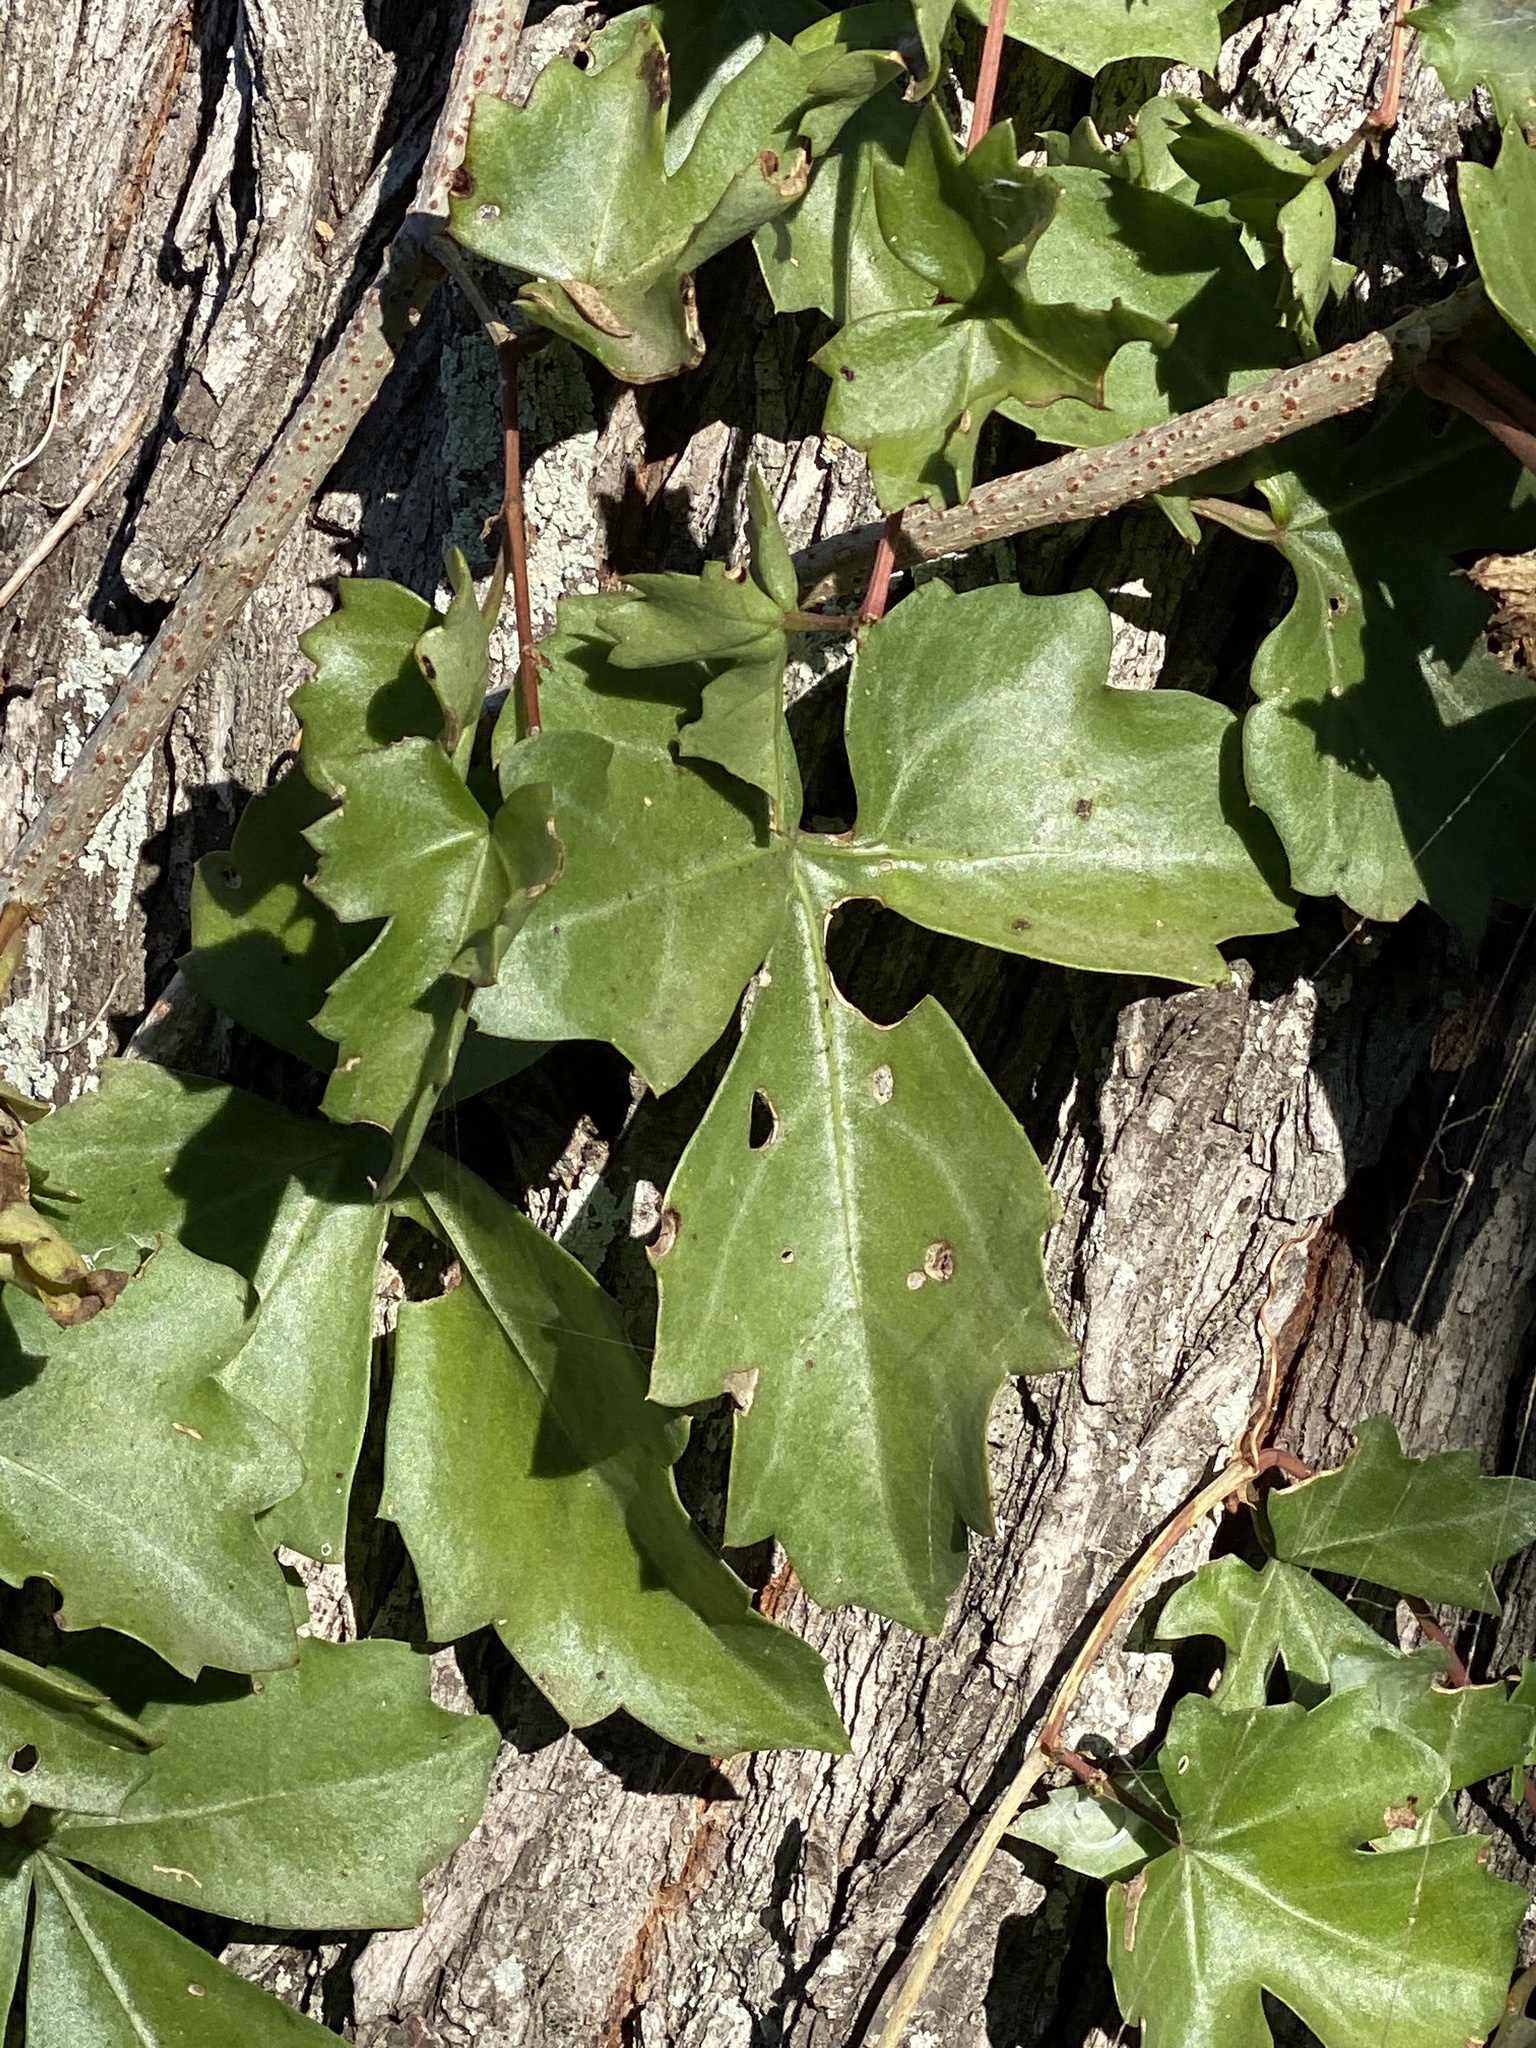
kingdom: Plantae
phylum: Tracheophyta
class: Magnoliopsida
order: Vitales
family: Vitaceae
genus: Cissus
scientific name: Cissus trifoliata
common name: Vine-sorrel
